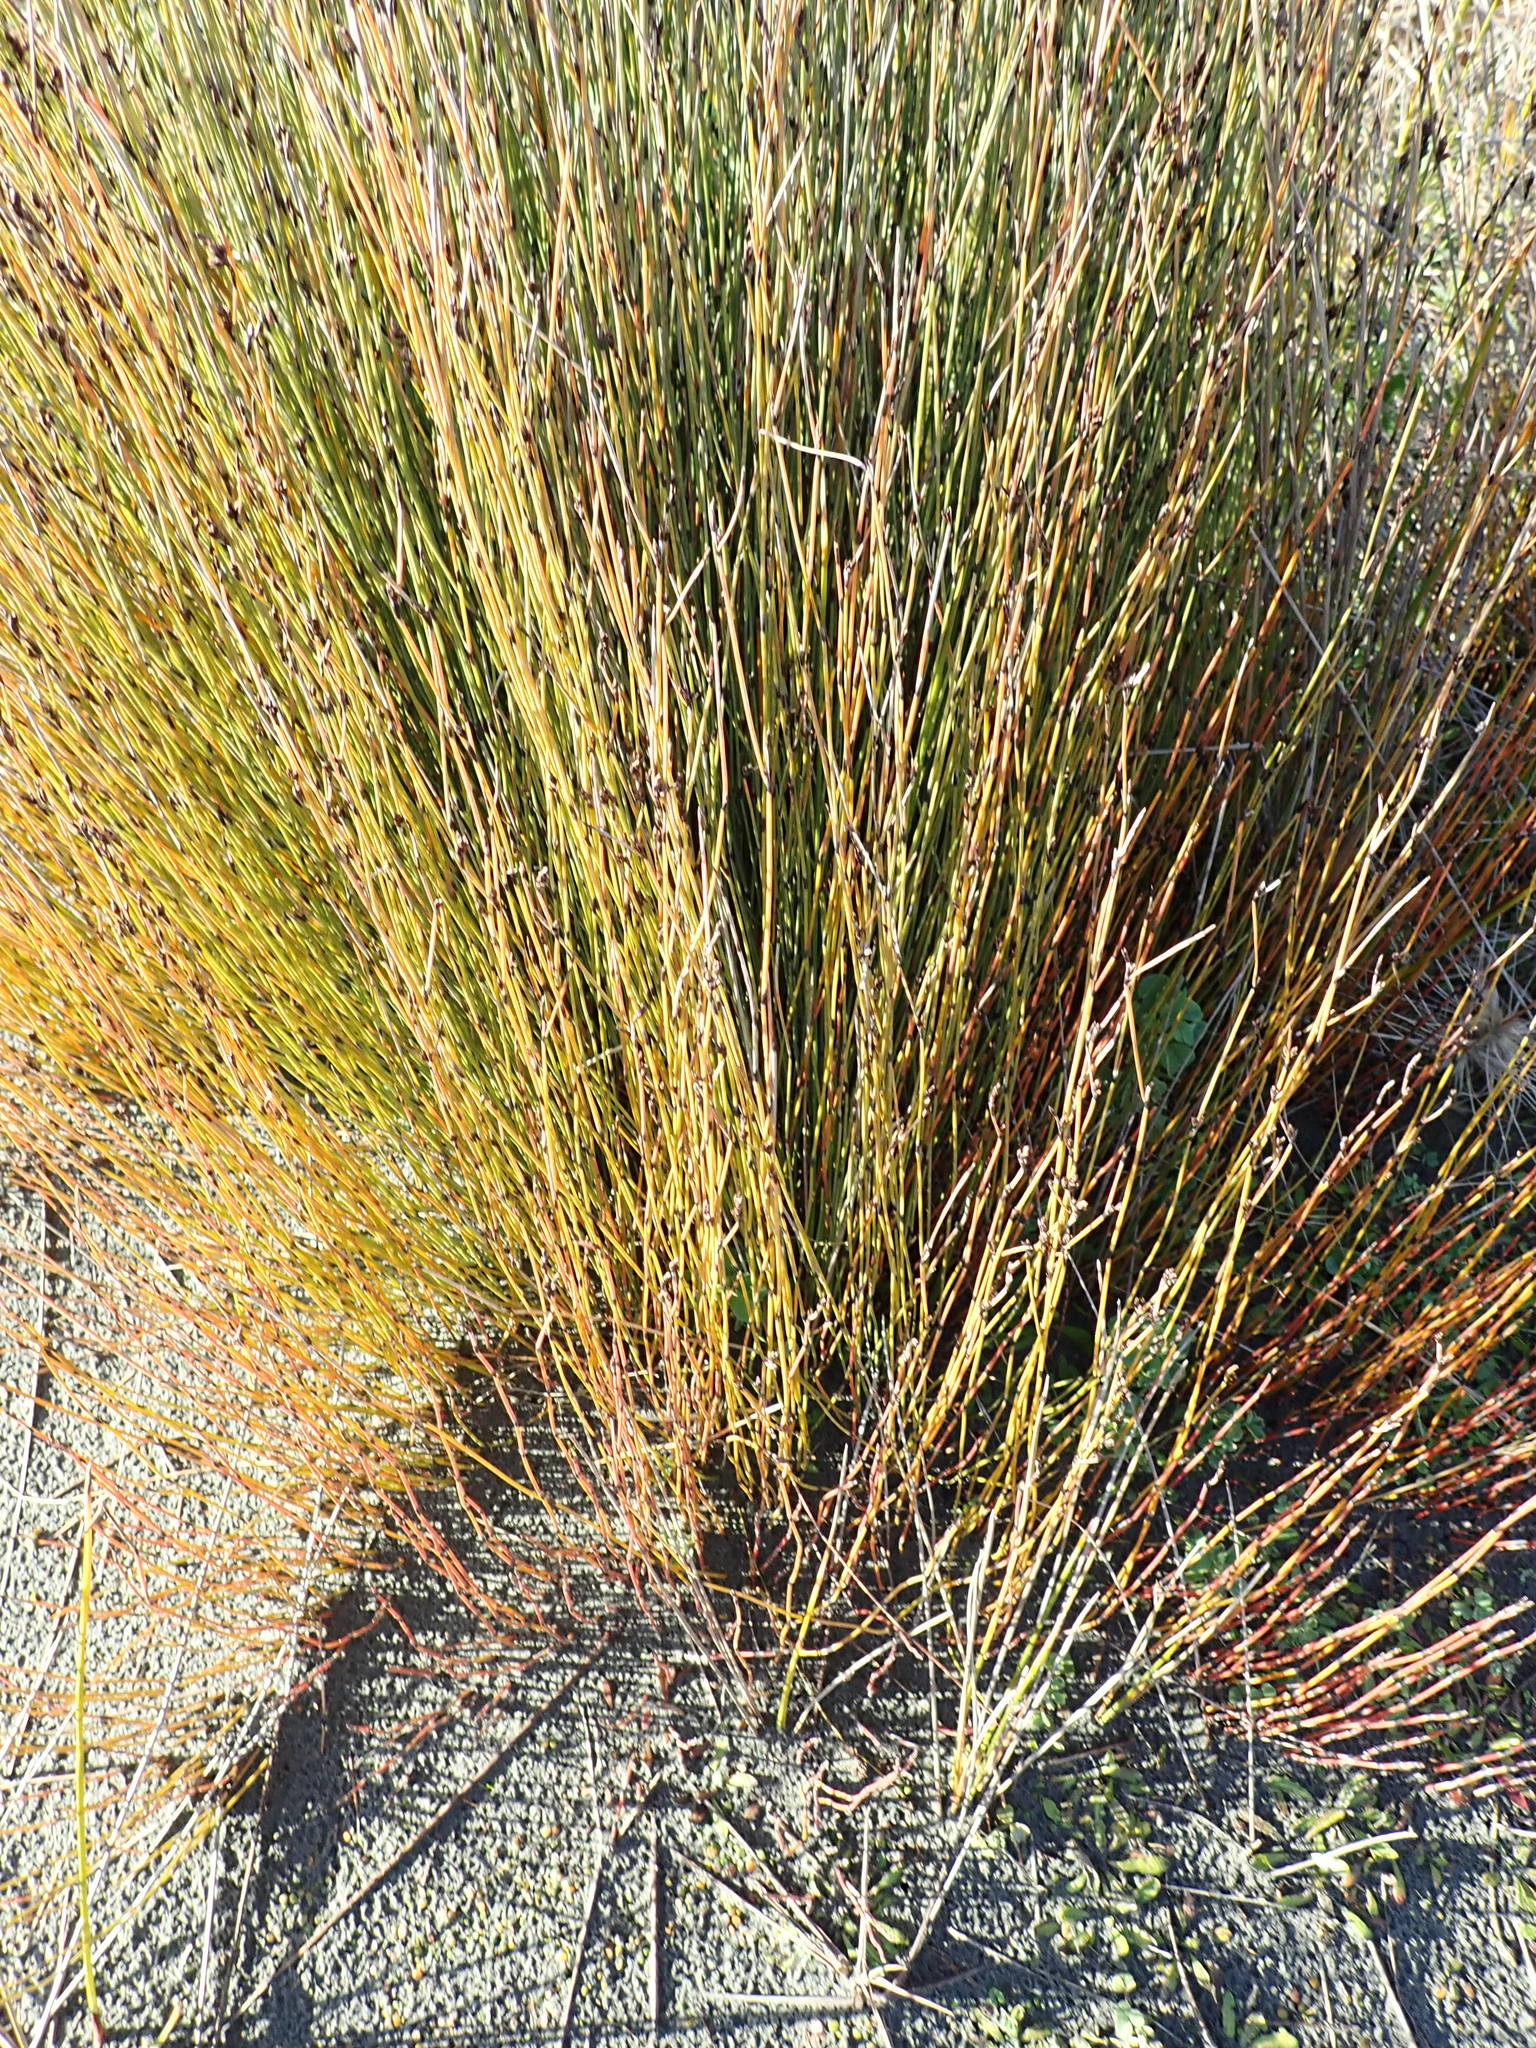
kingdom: Plantae
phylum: Tracheophyta
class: Liliopsida
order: Poales
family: Restionaceae
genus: Apodasmia
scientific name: Apodasmia similis
